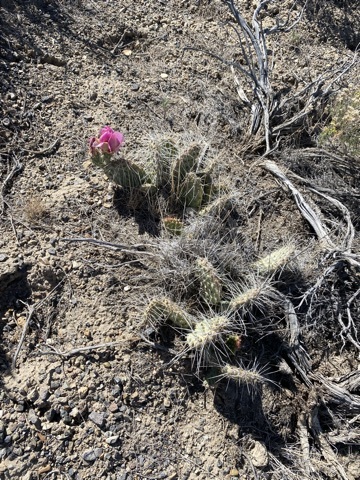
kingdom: Plantae
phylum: Tracheophyta
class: Magnoliopsida
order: Caryophyllales
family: Cactaceae
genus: Opuntia
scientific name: Opuntia polyacantha
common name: Plains prickly-pear
